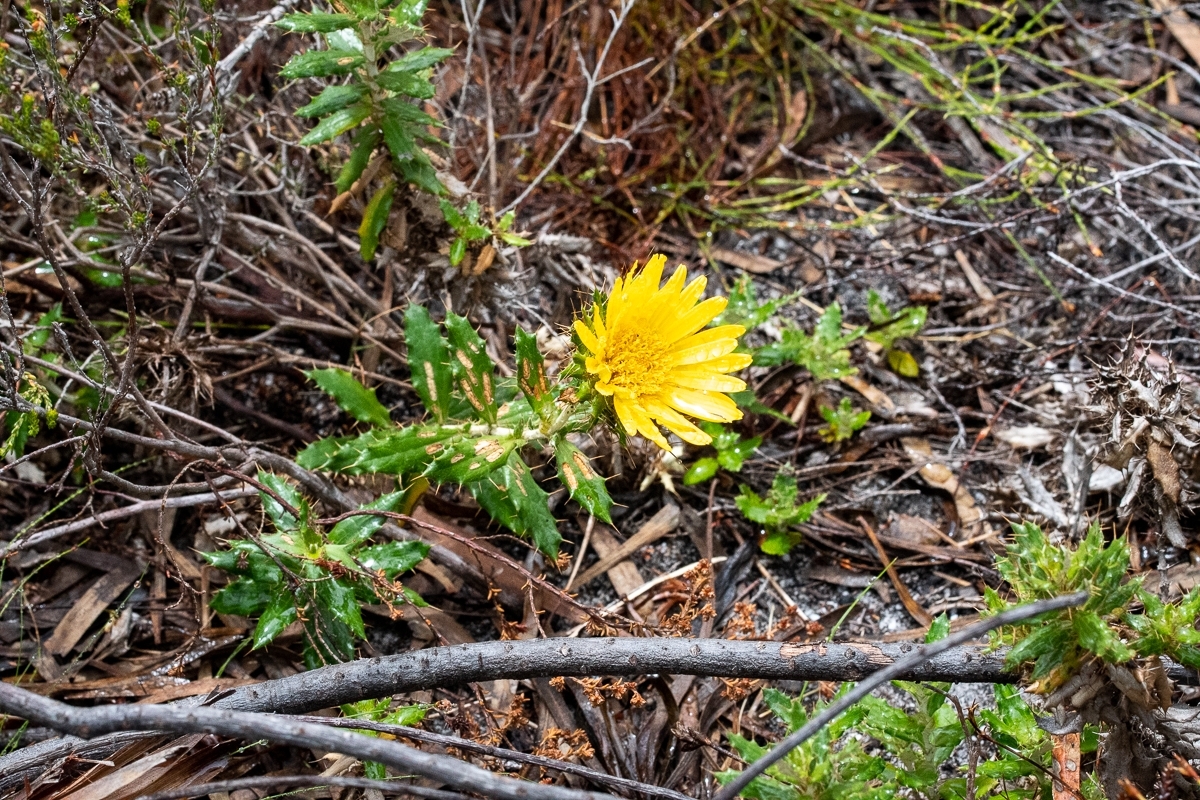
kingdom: Plantae
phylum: Tracheophyta
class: Magnoliopsida
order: Asterales
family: Asteraceae
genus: Berkheya
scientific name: Berkheya barbata
